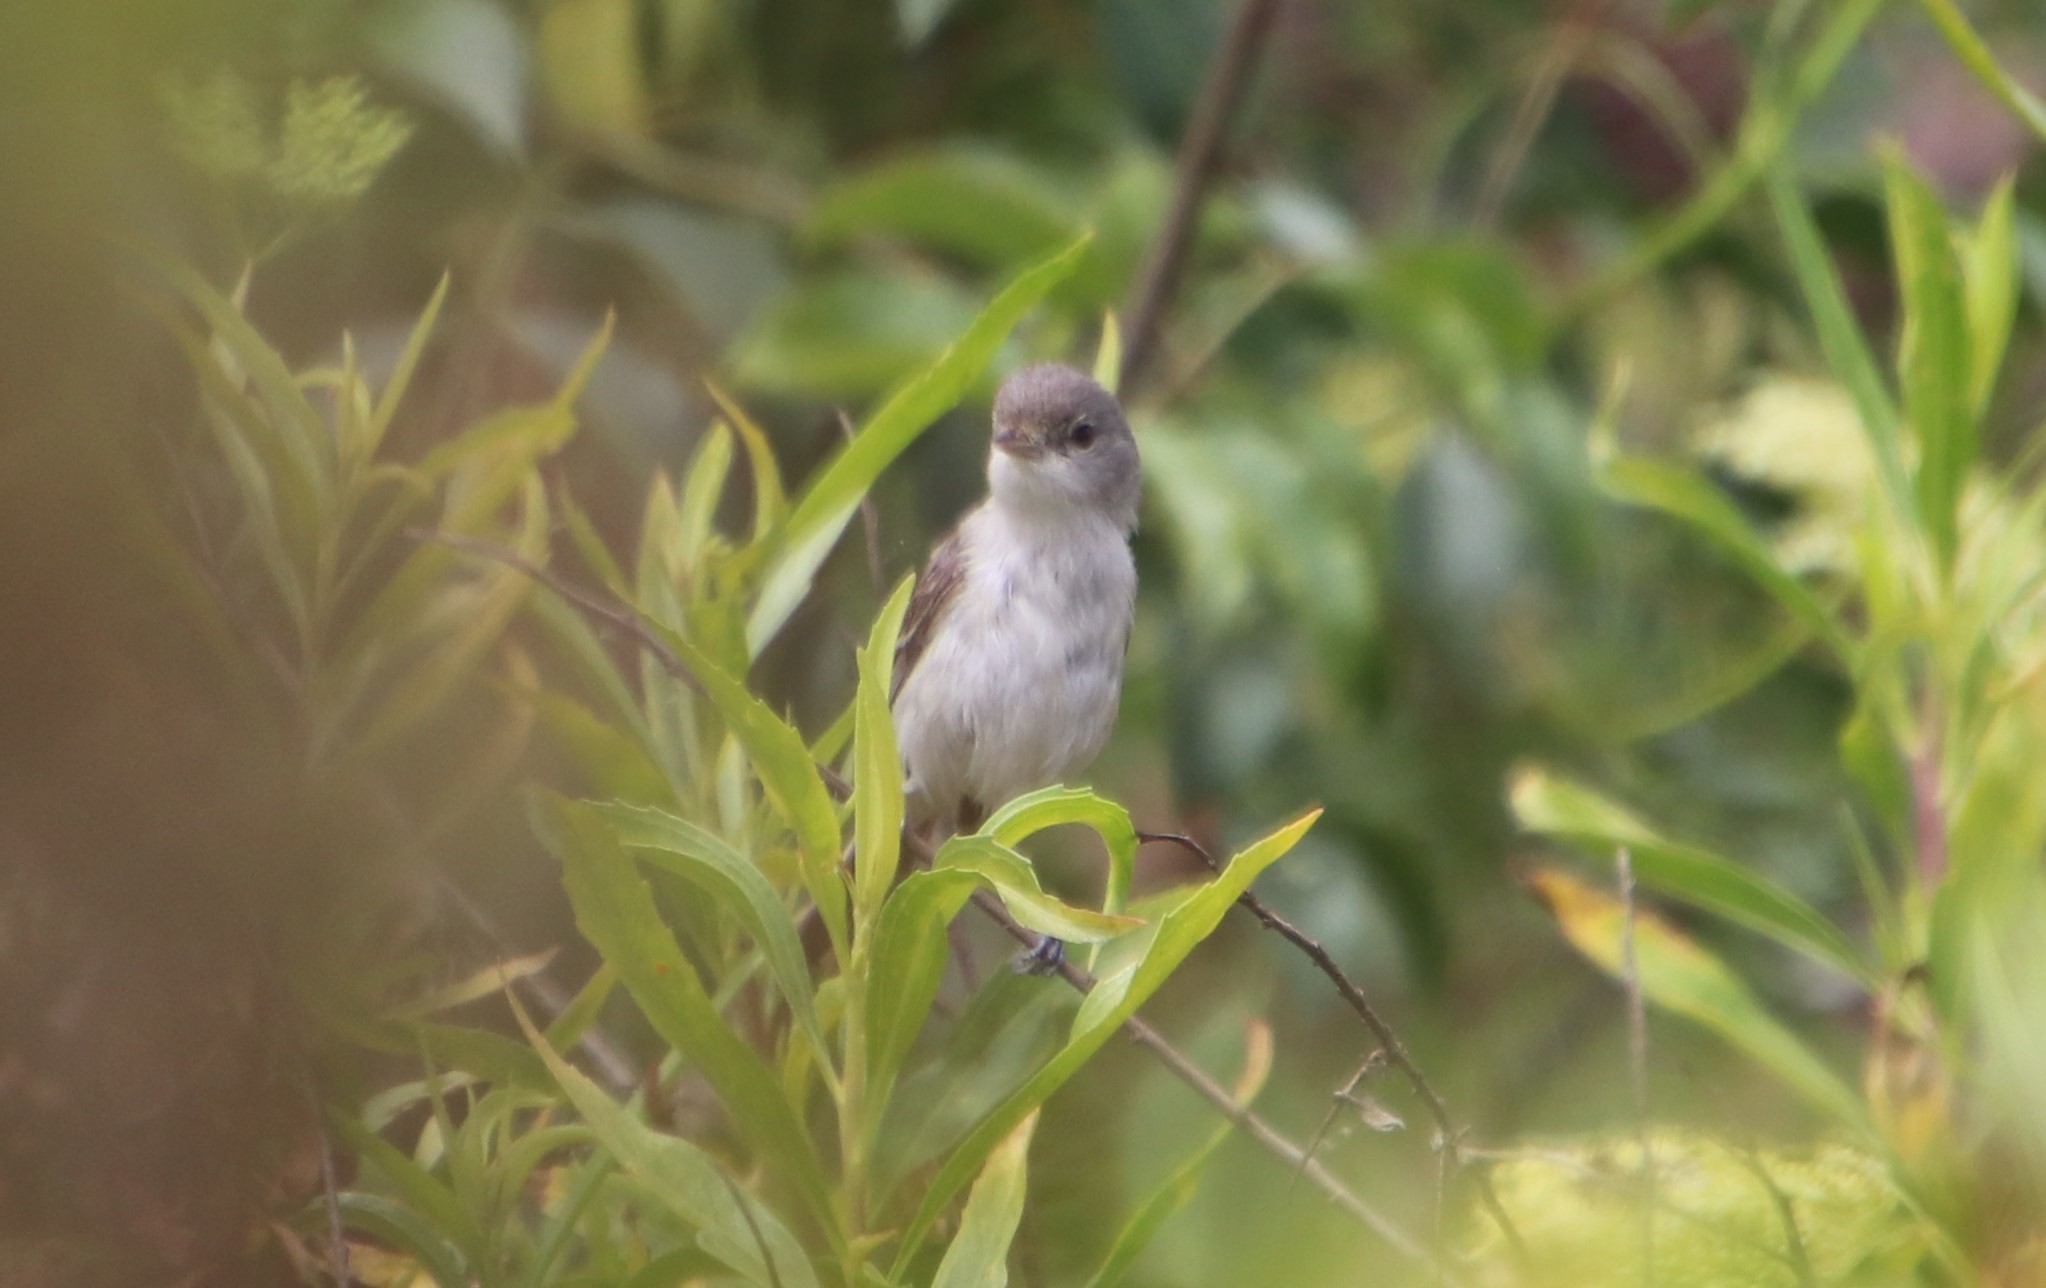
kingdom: Animalia
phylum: Chordata
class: Aves
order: Passeriformes
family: Vireonidae
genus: Vireo
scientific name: Vireo bellii
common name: Bell's vireo
